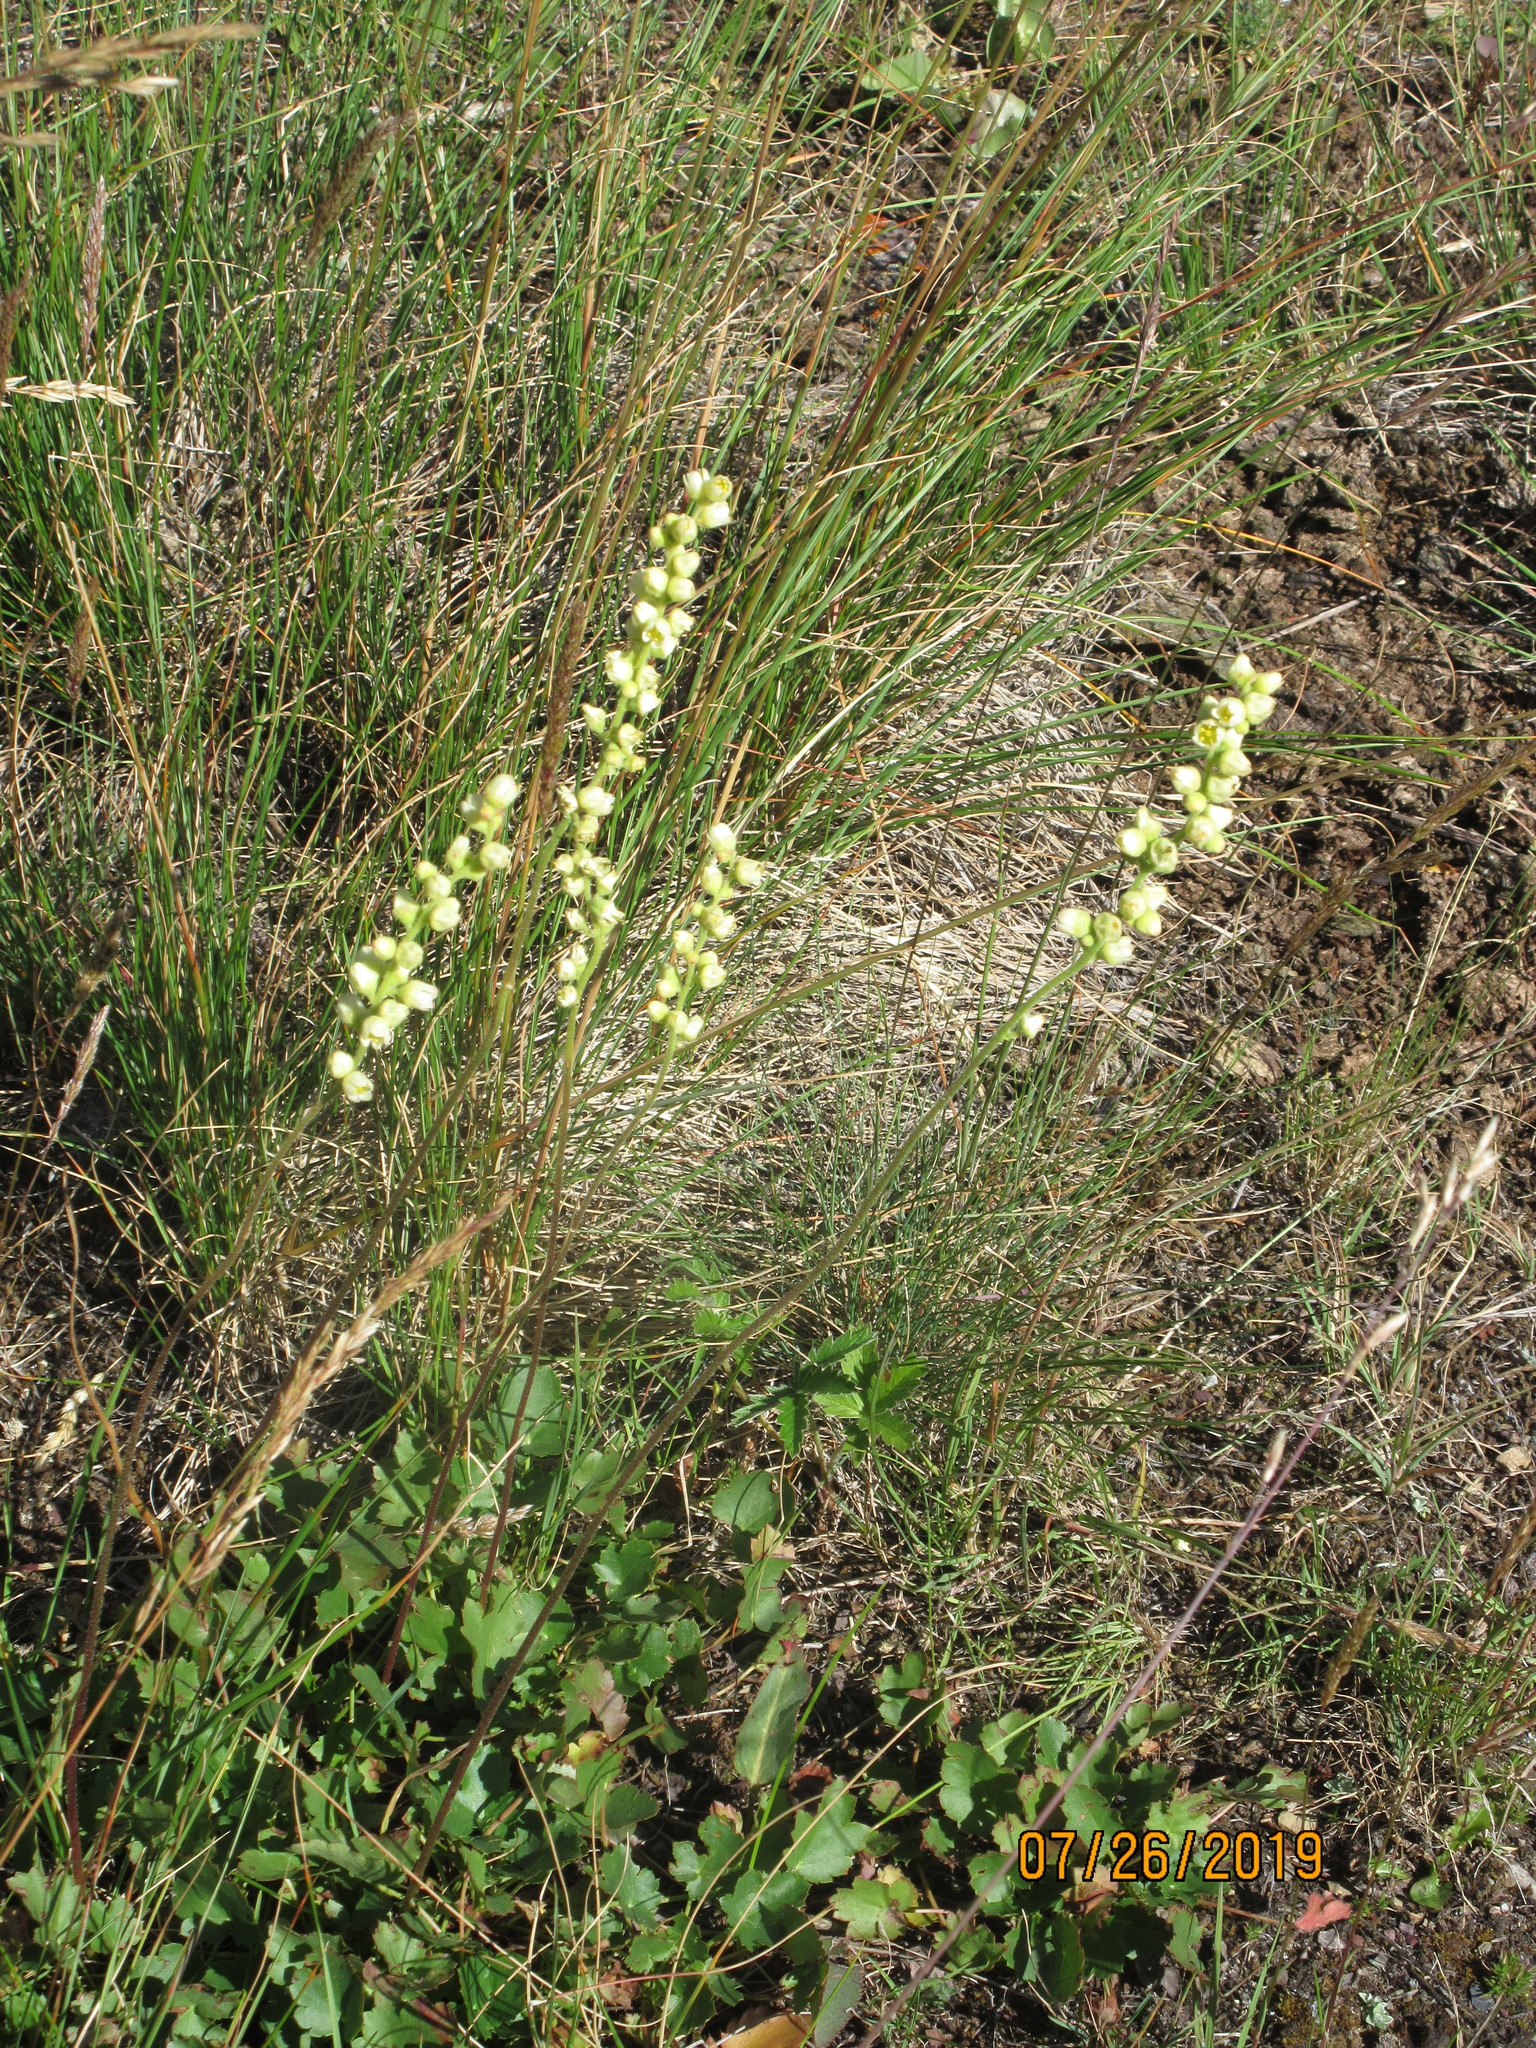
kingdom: Plantae
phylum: Tracheophyta
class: Magnoliopsida
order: Saxifragales
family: Saxifragaceae
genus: Heuchera
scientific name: Heuchera cylindrica
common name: Mat alumroot
